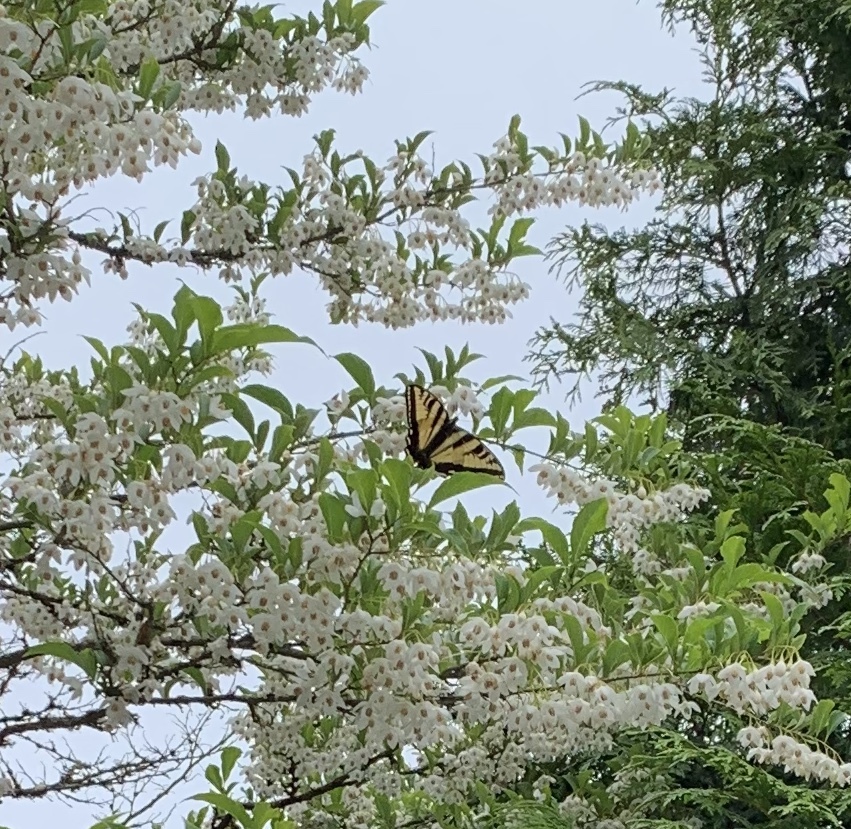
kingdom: Animalia
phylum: Arthropoda
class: Insecta
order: Lepidoptera
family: Papilionidae
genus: Papilio
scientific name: Papilio rutulus
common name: Western tiger swallowtail
